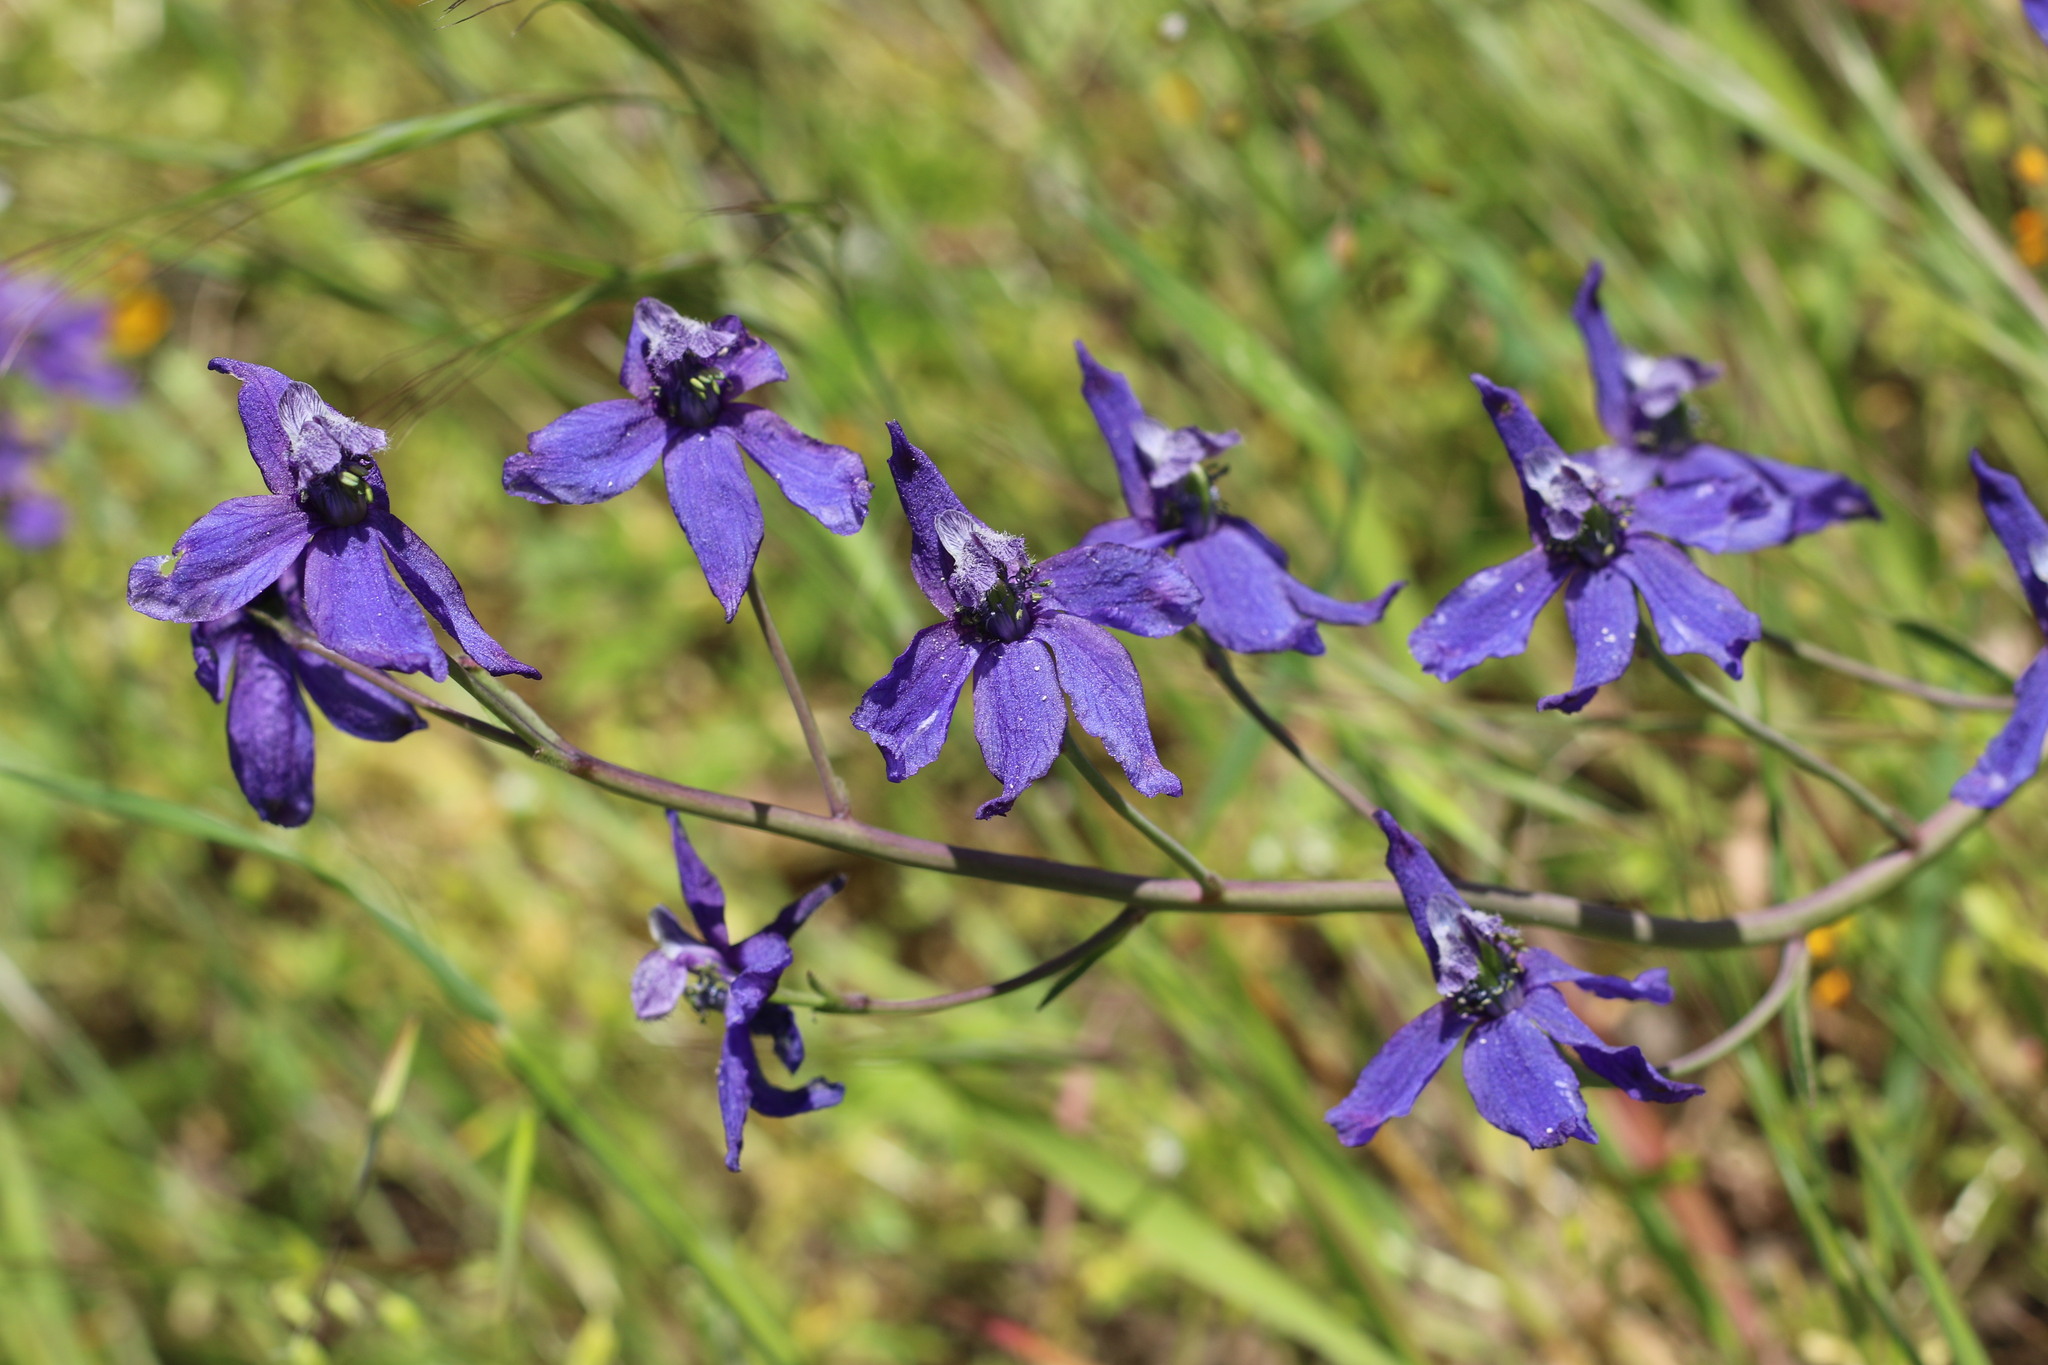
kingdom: Plantae
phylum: Tracheophyta
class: Magnoliopsida
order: Ranunculales
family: Ranunculaceae
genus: Delphinium
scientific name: Delphinium patens
